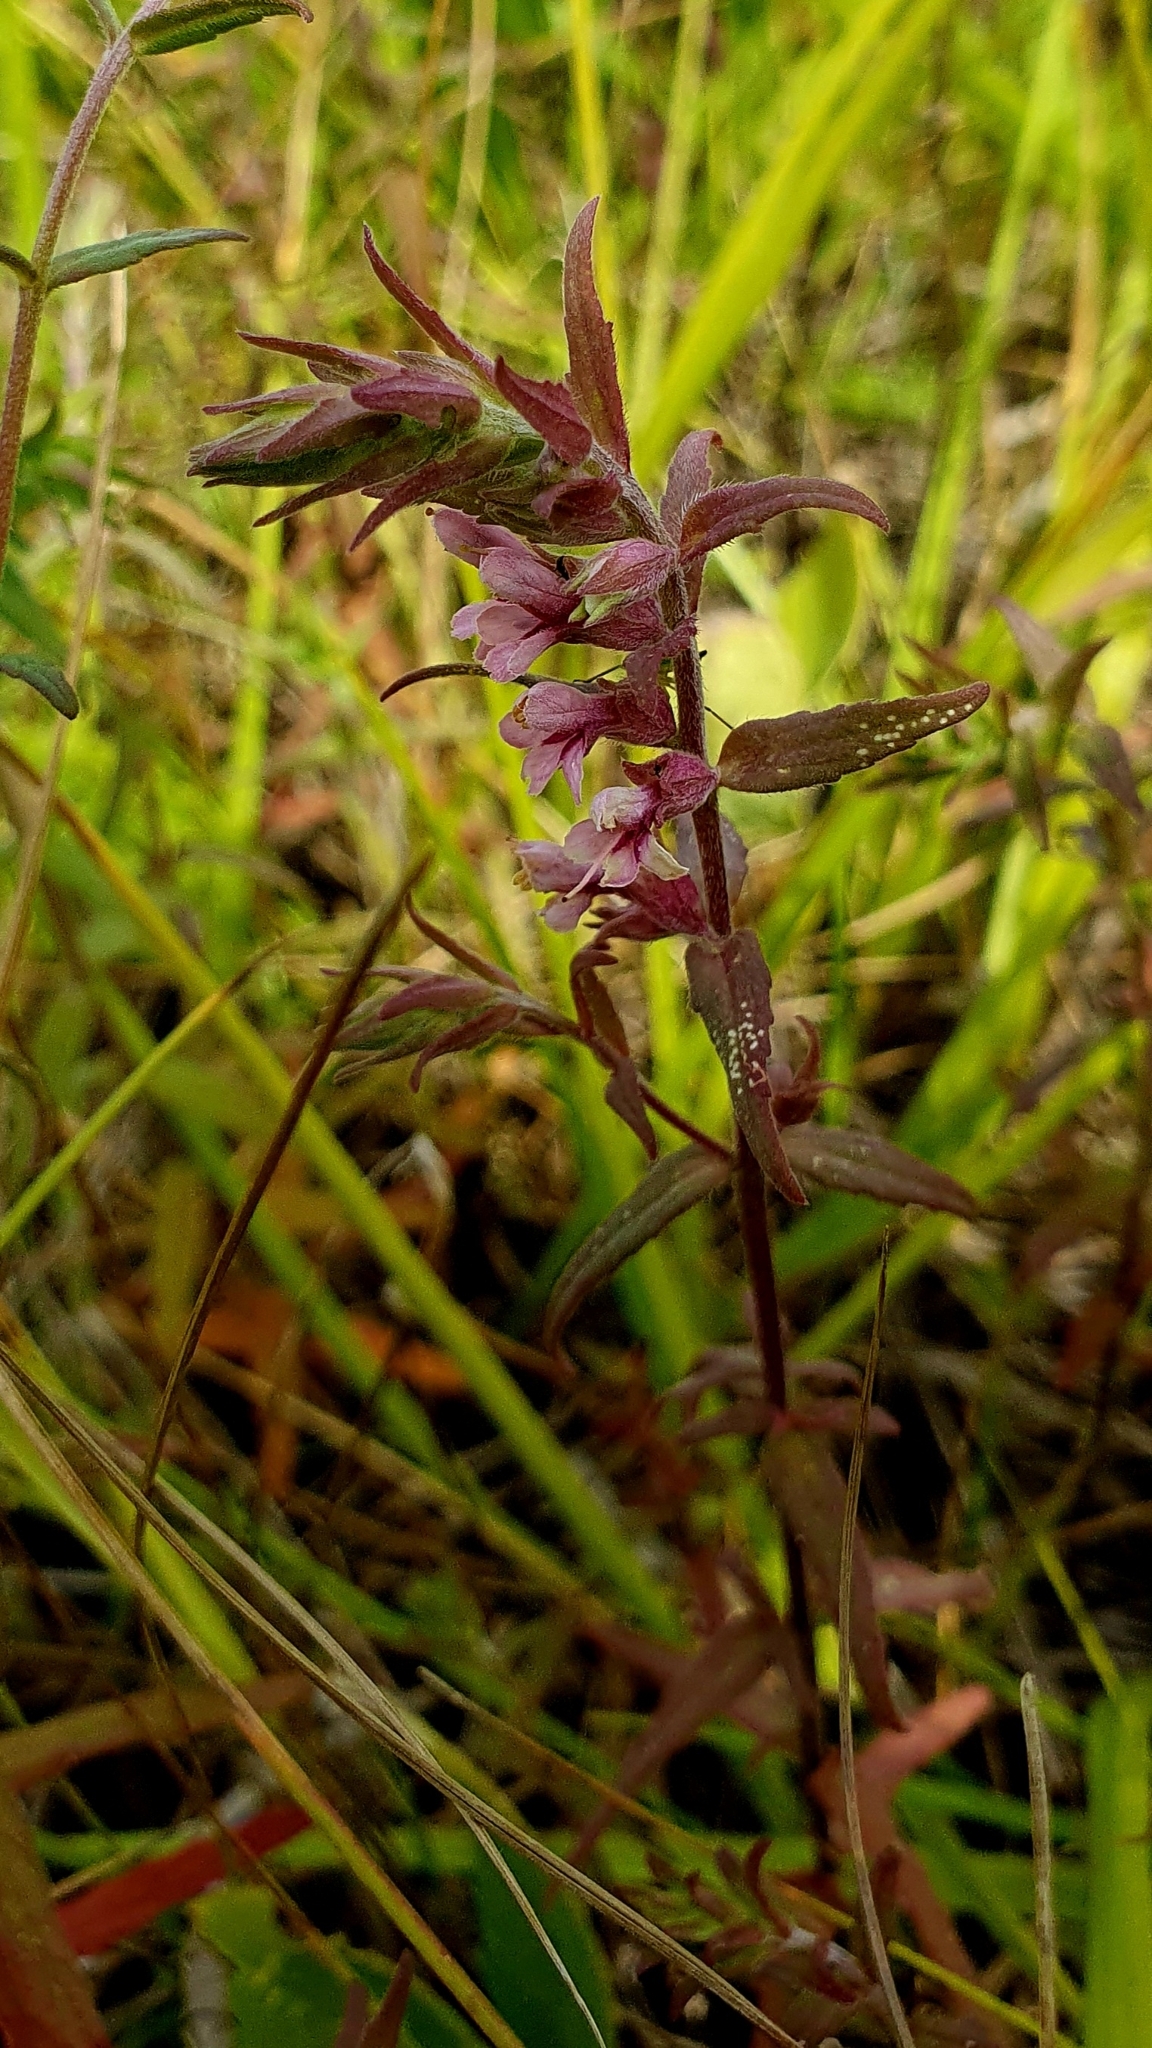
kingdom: Plantae
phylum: Tracheophyta
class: Magnoliopsida
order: Lamiales
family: Orobanchaceae
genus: Odontites
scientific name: Odontites vulgaris
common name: Broomrape
